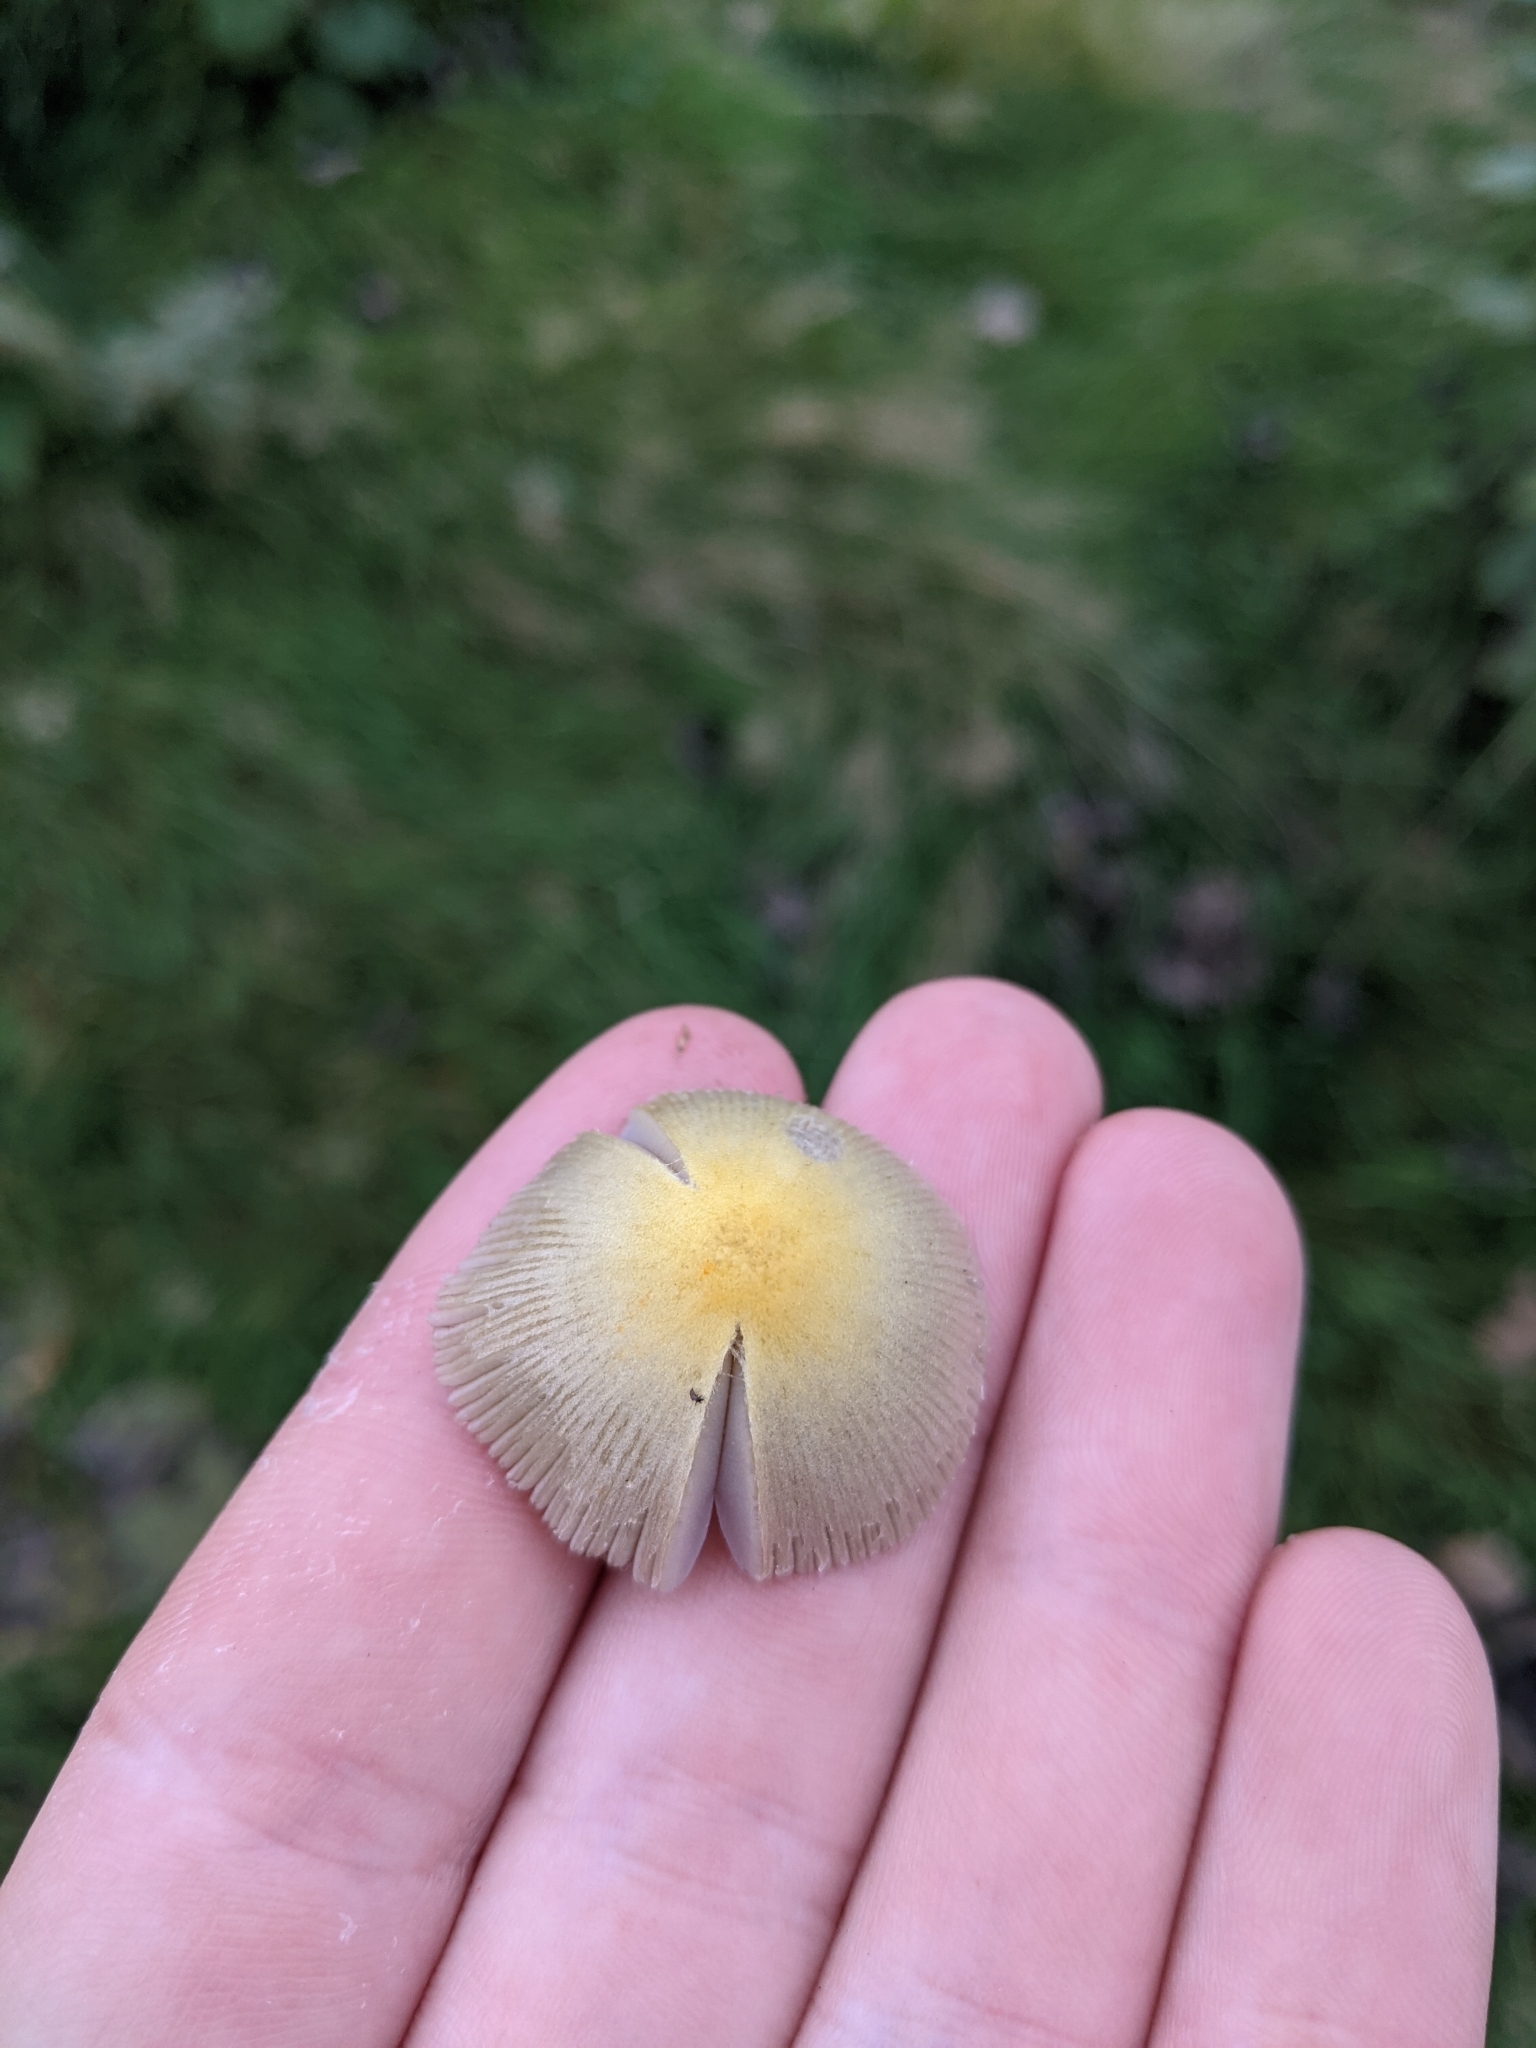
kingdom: Fungi
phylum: Basidiomycota
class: Agaricomycetes
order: Agaricales
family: Bolbitiaceae
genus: Bolbitius
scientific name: Bolbitius titubans
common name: Yellow fieldcap
